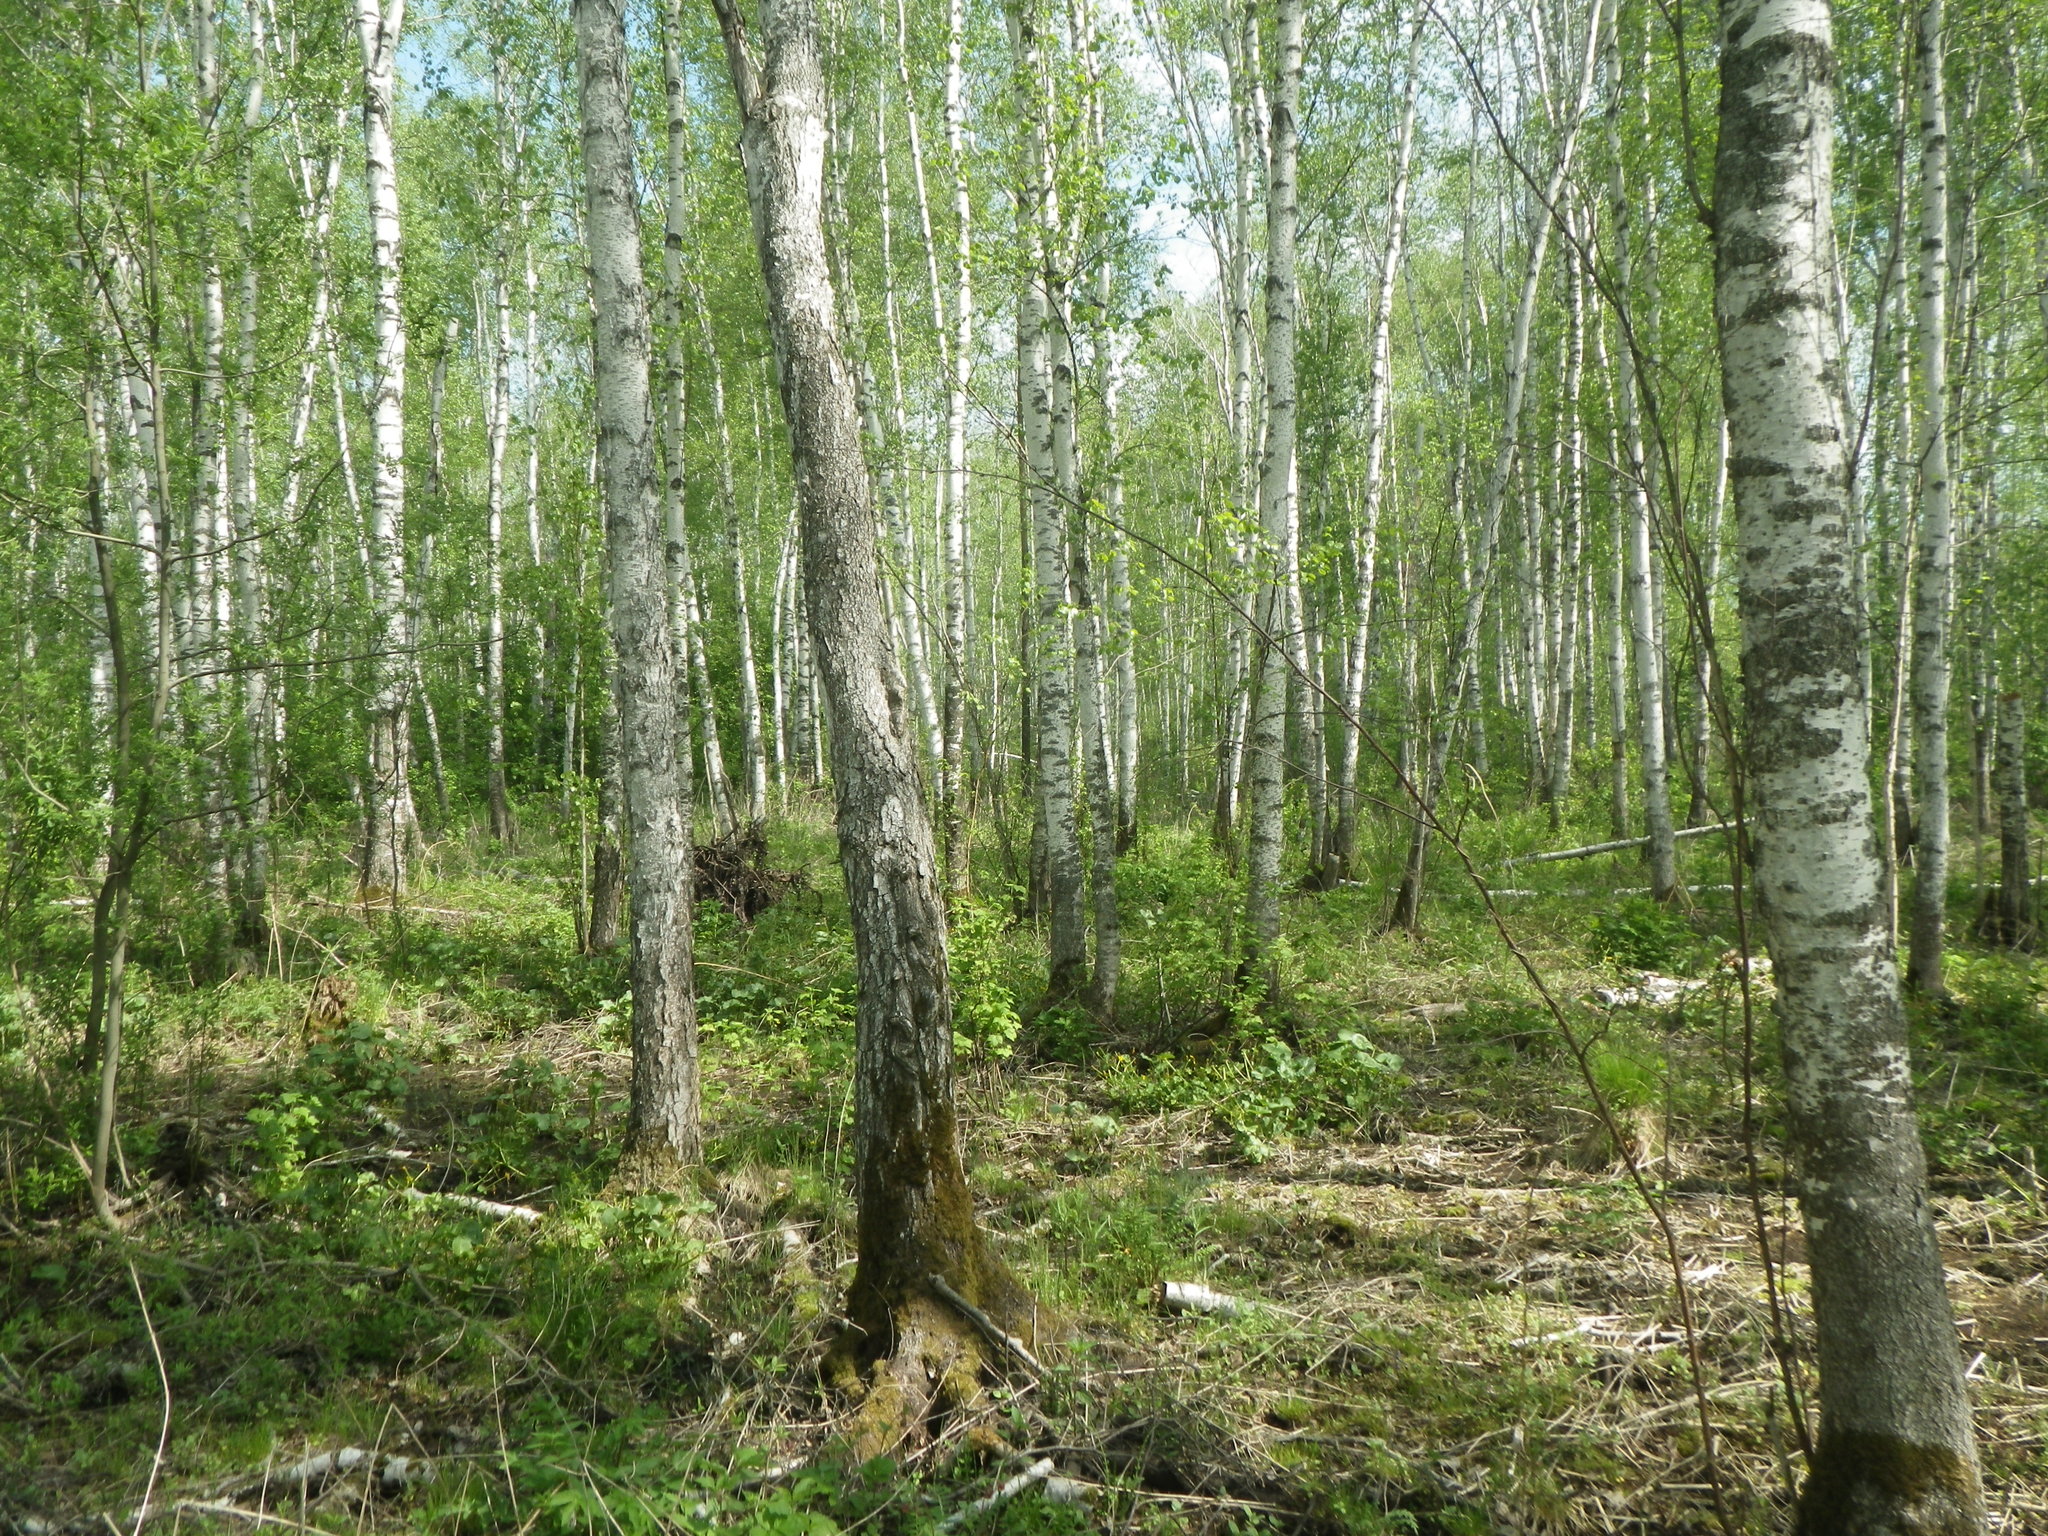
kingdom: Plantae
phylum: Tracheophyta
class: Magnoliopsida
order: Fagales
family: Betulaceae
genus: Betula
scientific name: Betula pubescens
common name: Downy birch
